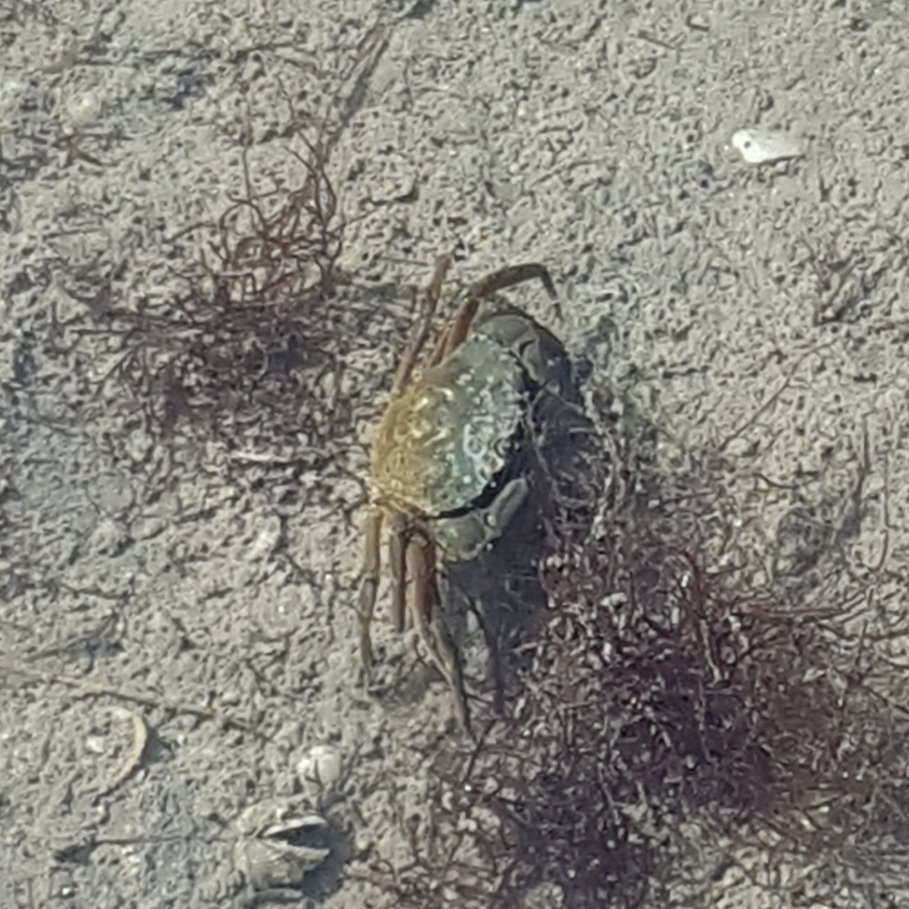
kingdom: Animalia
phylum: Arthropoda
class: Malacostraca
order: Decapoda
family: Carcinidae
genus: Carcinus
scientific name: Carcinus aestuarii
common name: Mediterranean green crab
